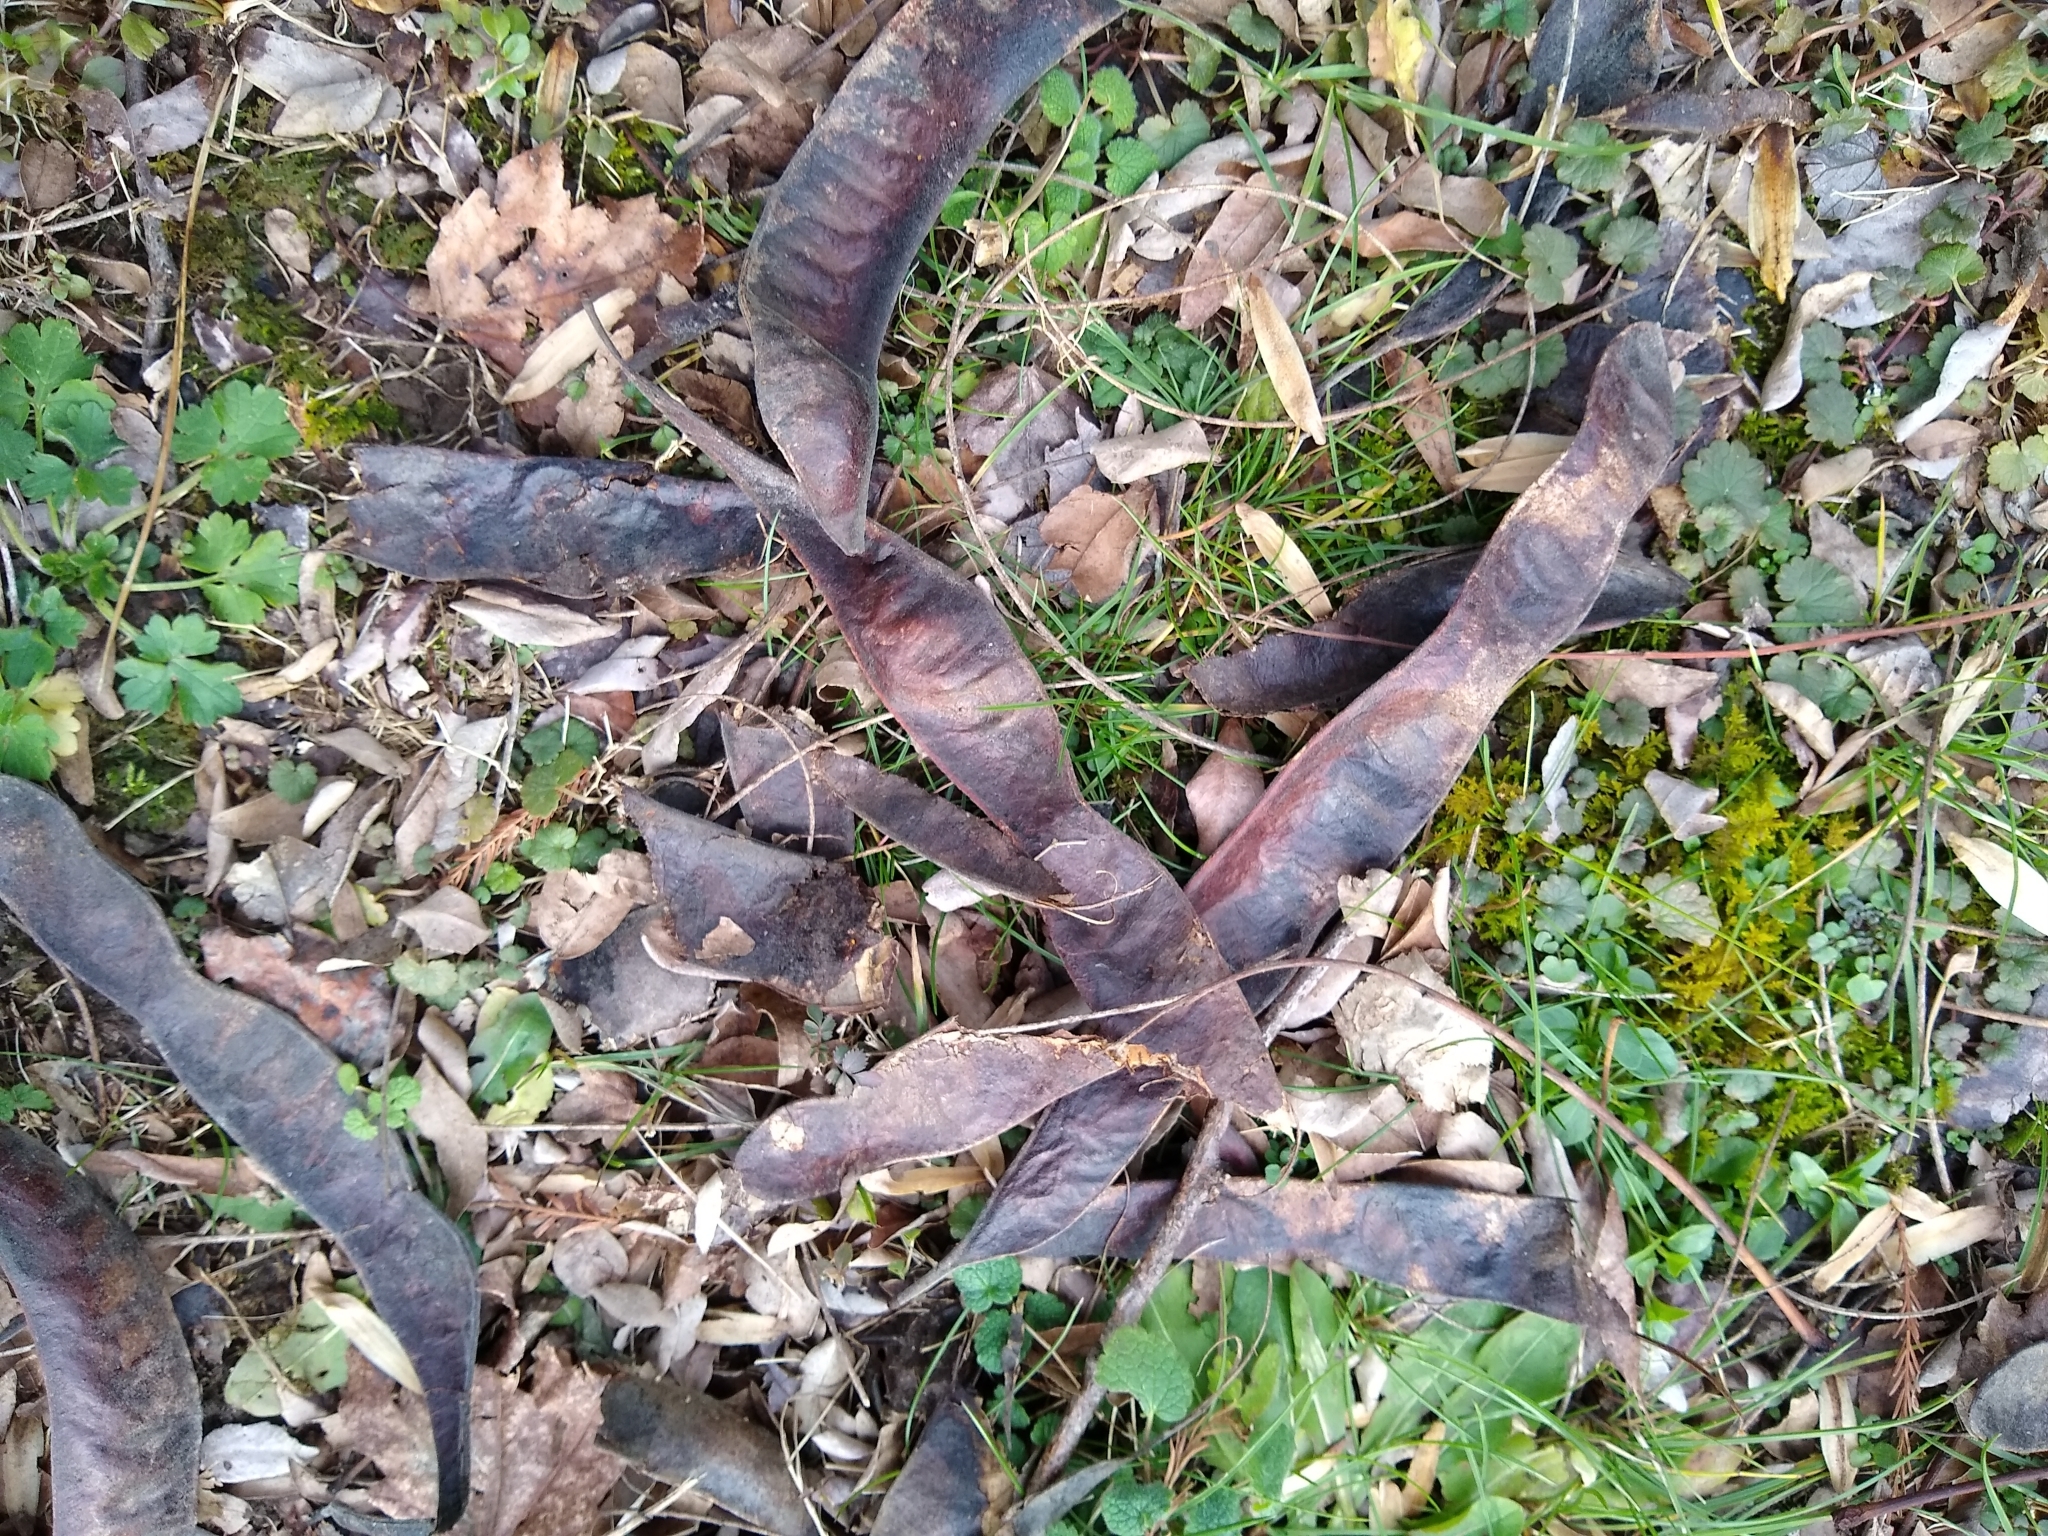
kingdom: Plantae
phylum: Tracheophyta
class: Magnoliopsida
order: Fabales
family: Fabaceae
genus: Gleditsia
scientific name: Gleditsia triacanthos
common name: Common honeylocust
